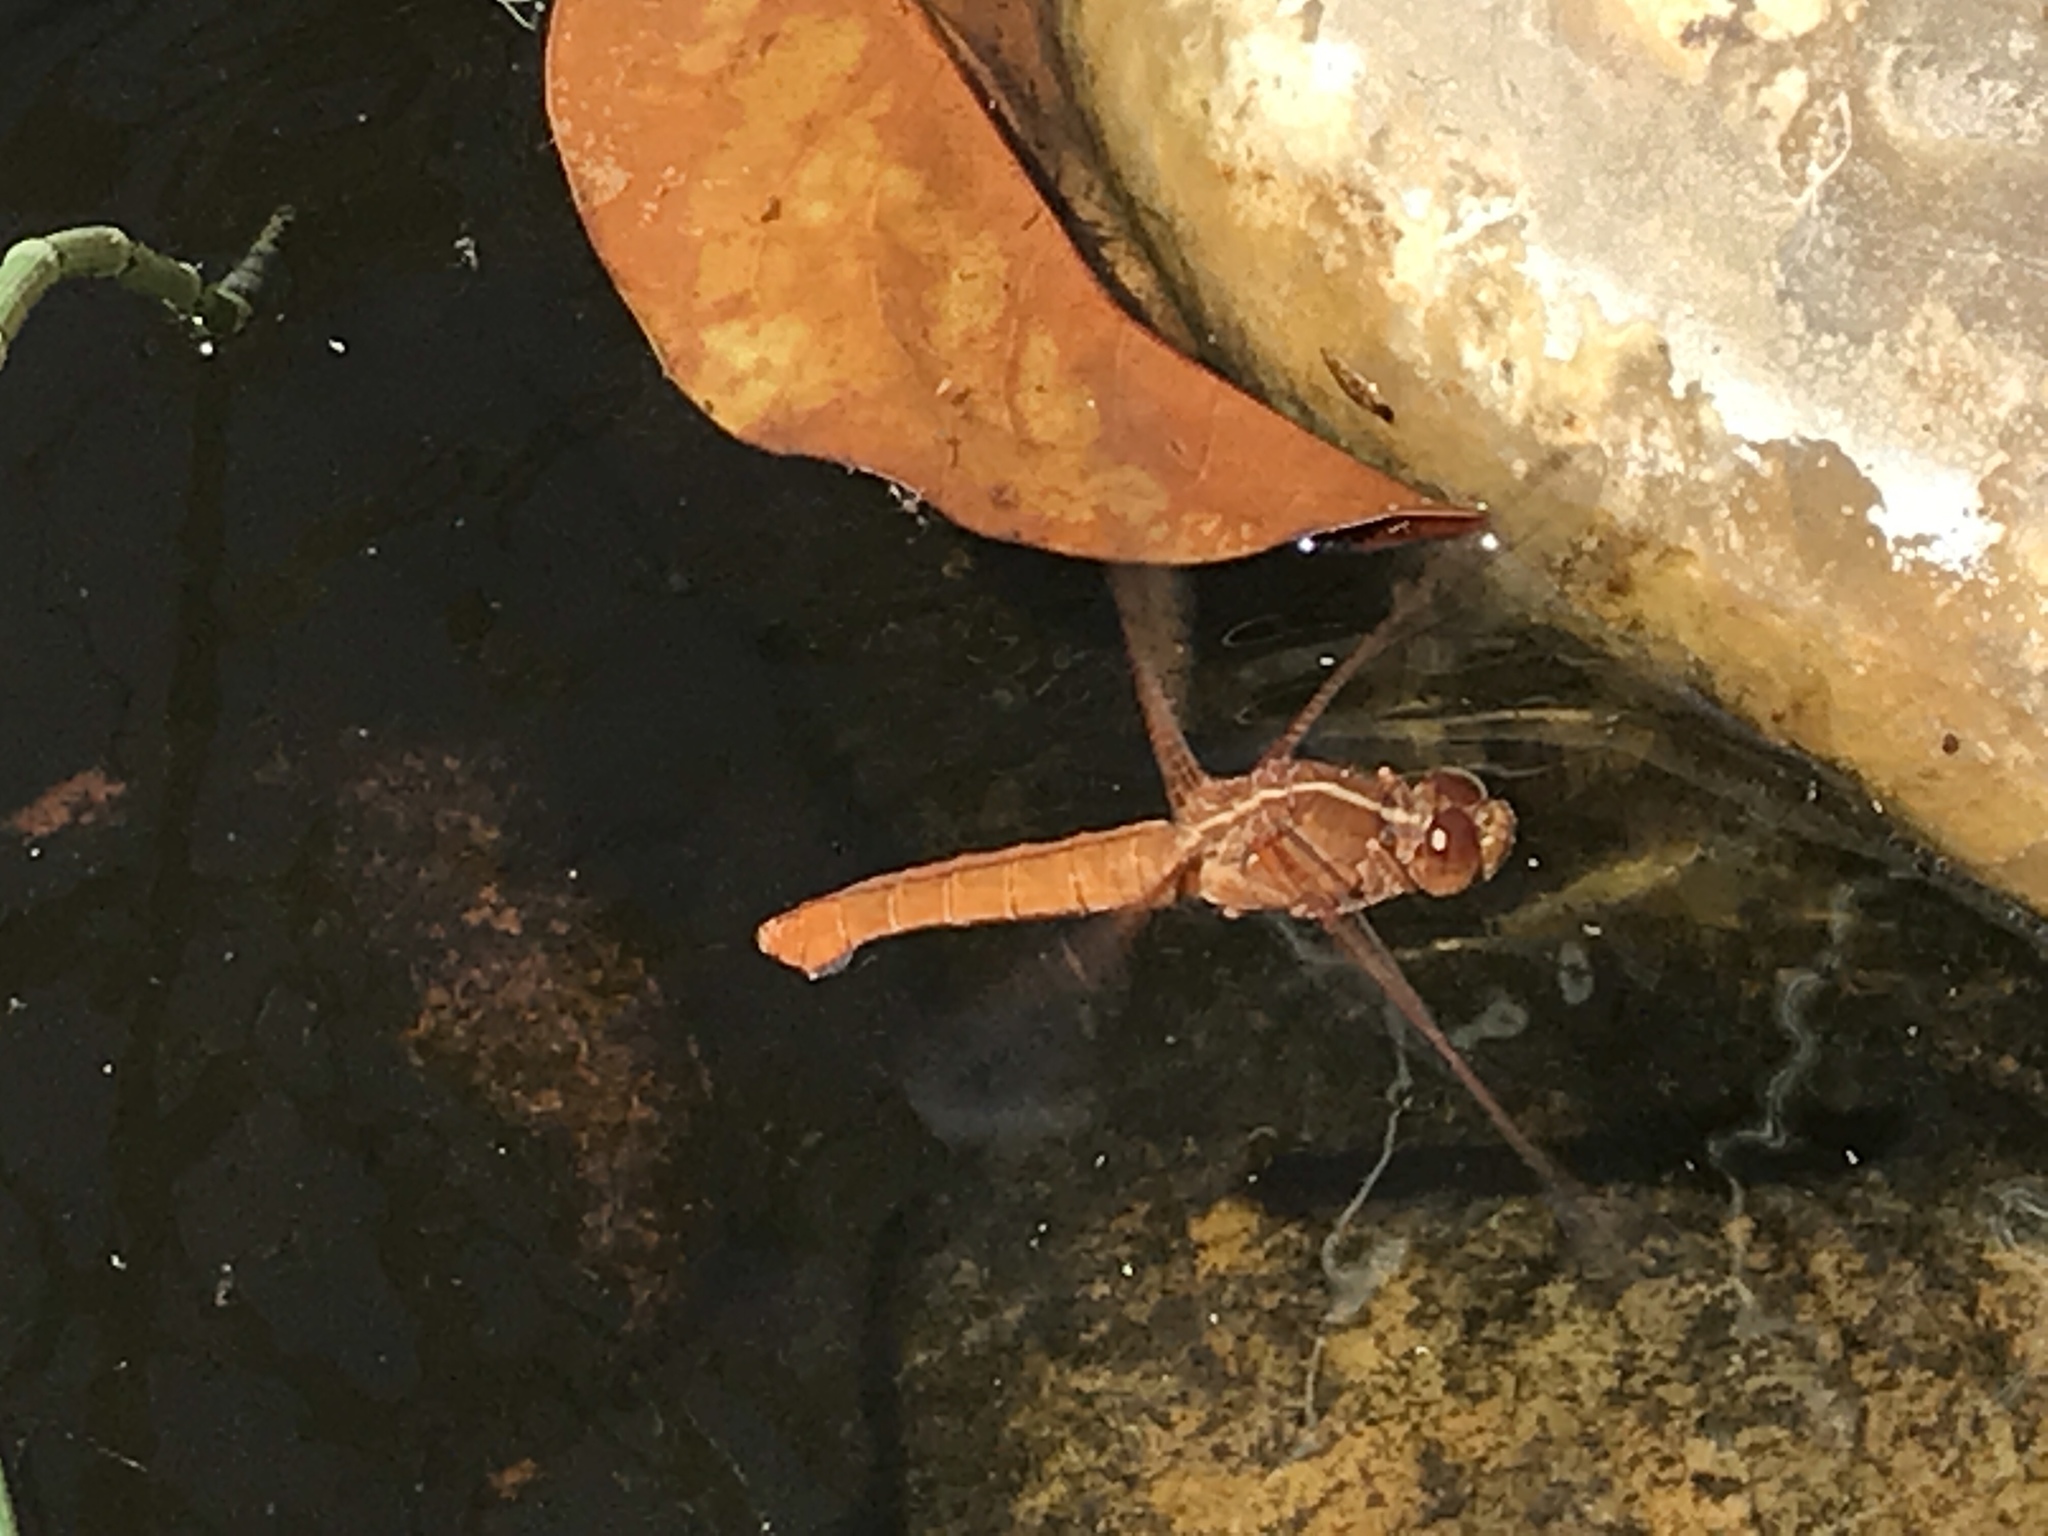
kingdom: Animalia
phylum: Arthropoda
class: Insecta
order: Odonata
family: Libellulidae
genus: Libellula
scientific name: Libellula croceipennis
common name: Neon skimmer
